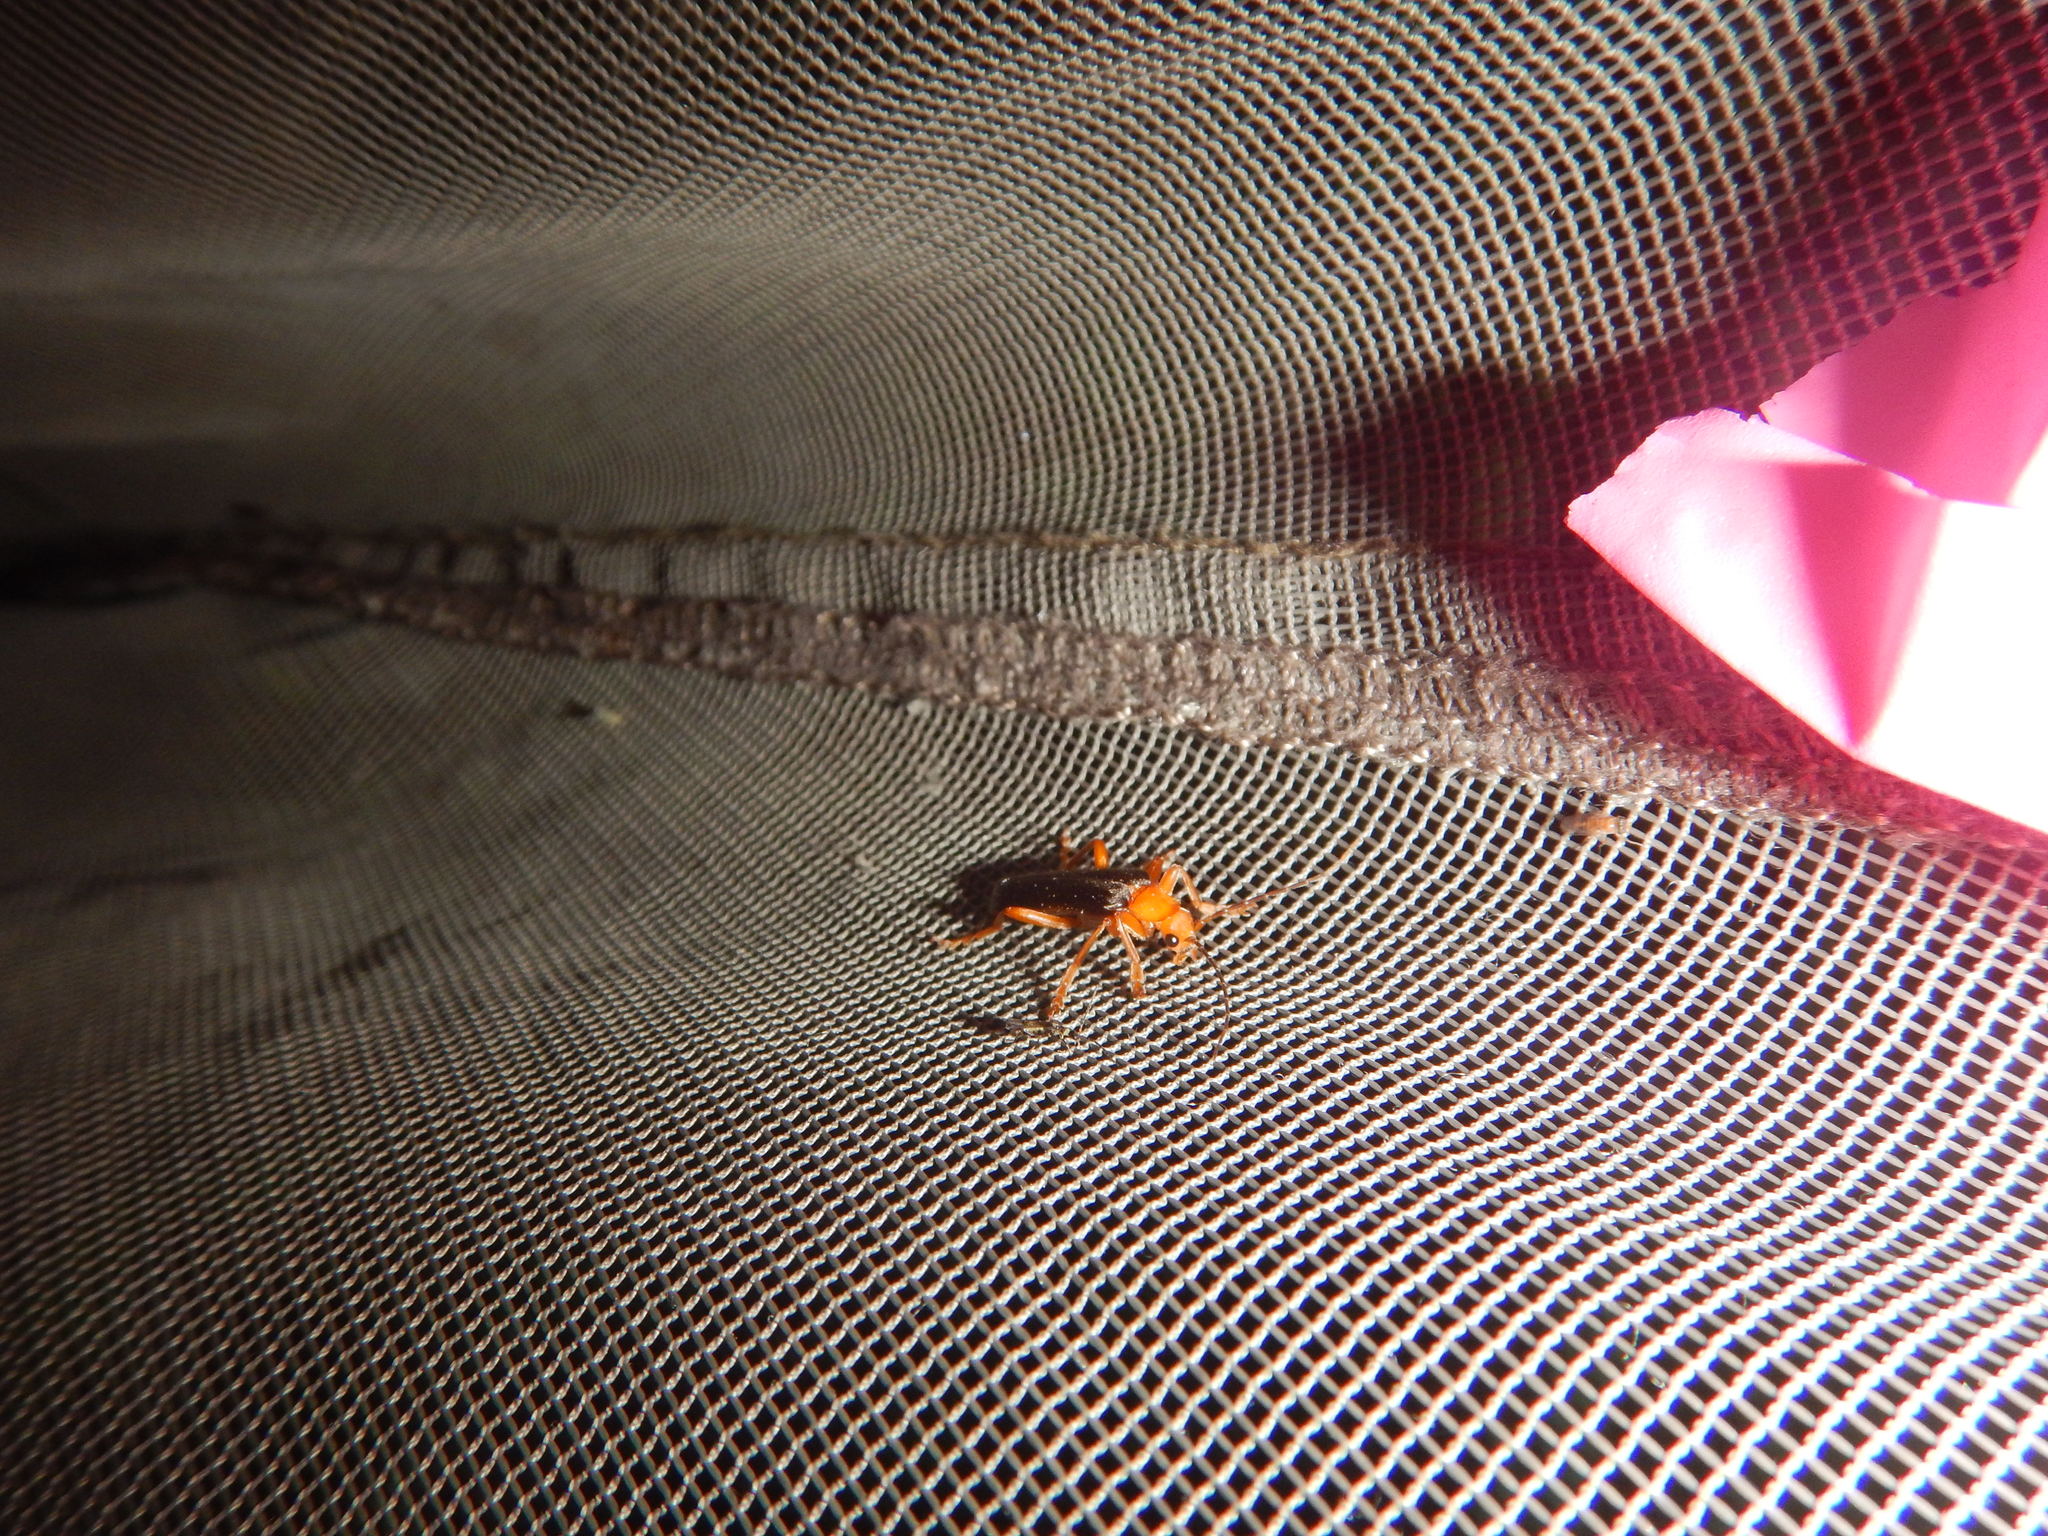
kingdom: Animalia
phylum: Arthropoda
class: Insecta
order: Coleoptera
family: Cantharidae
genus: Pacificanthia
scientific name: Pacificanthia rotundicollis
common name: Brown leatherwing beetle
